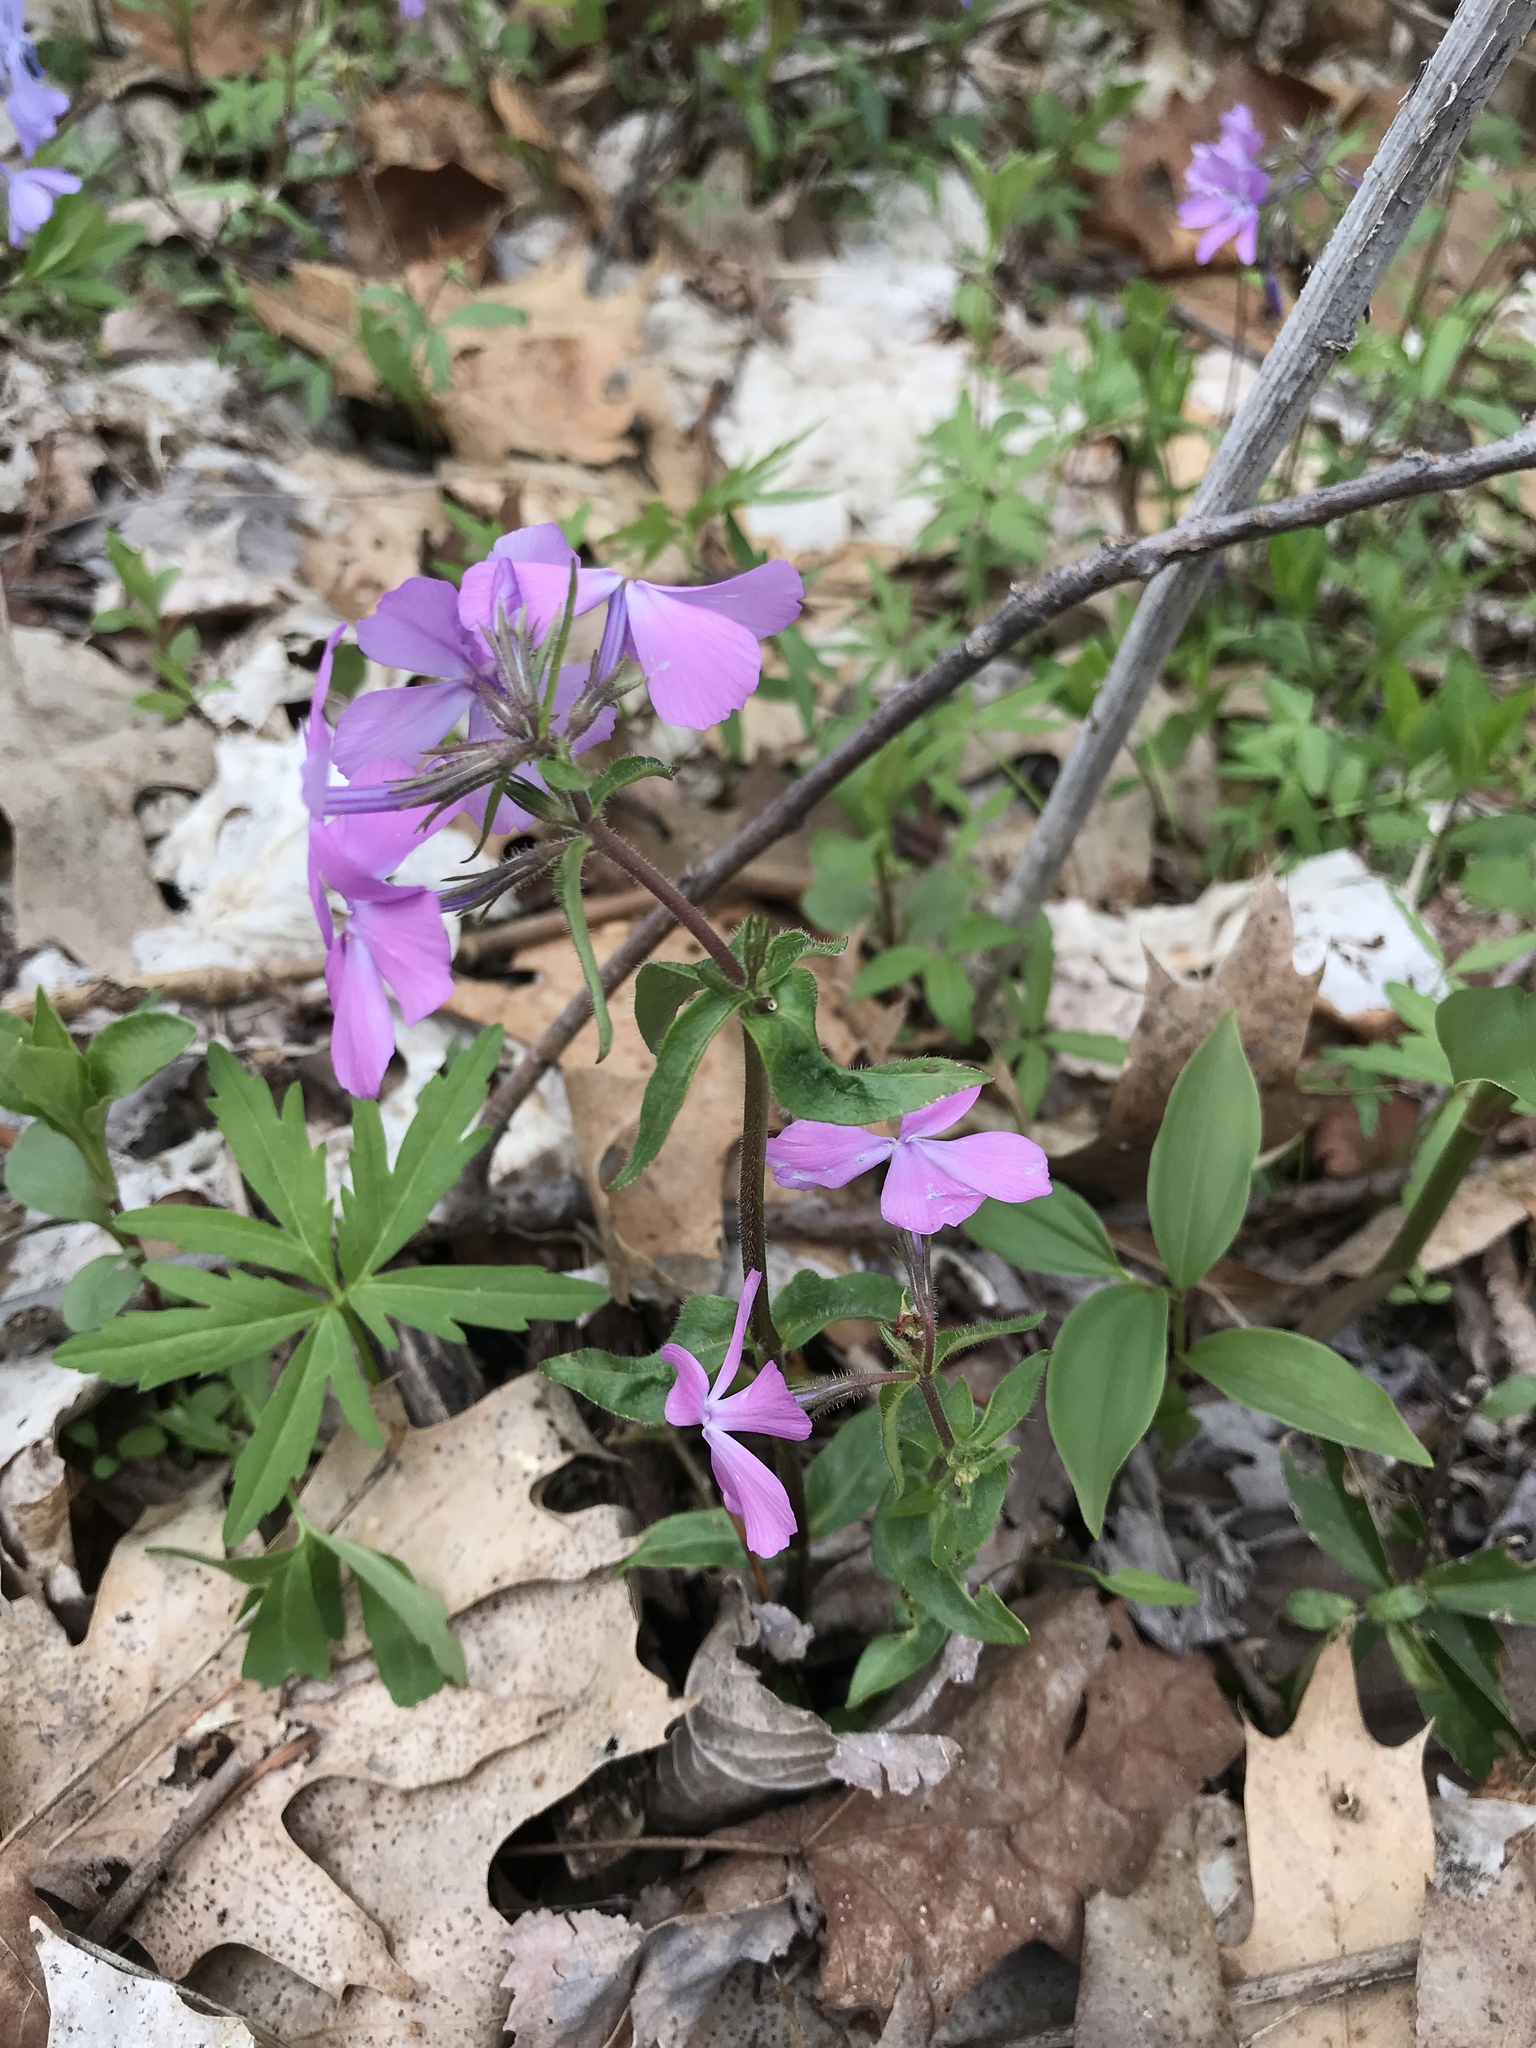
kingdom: Plantae
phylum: Tracheophyta
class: Magnoliopsida
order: Ericales
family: Polemoniaceae
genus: Phlox
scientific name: Phlox divaricata
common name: Blue phlox
